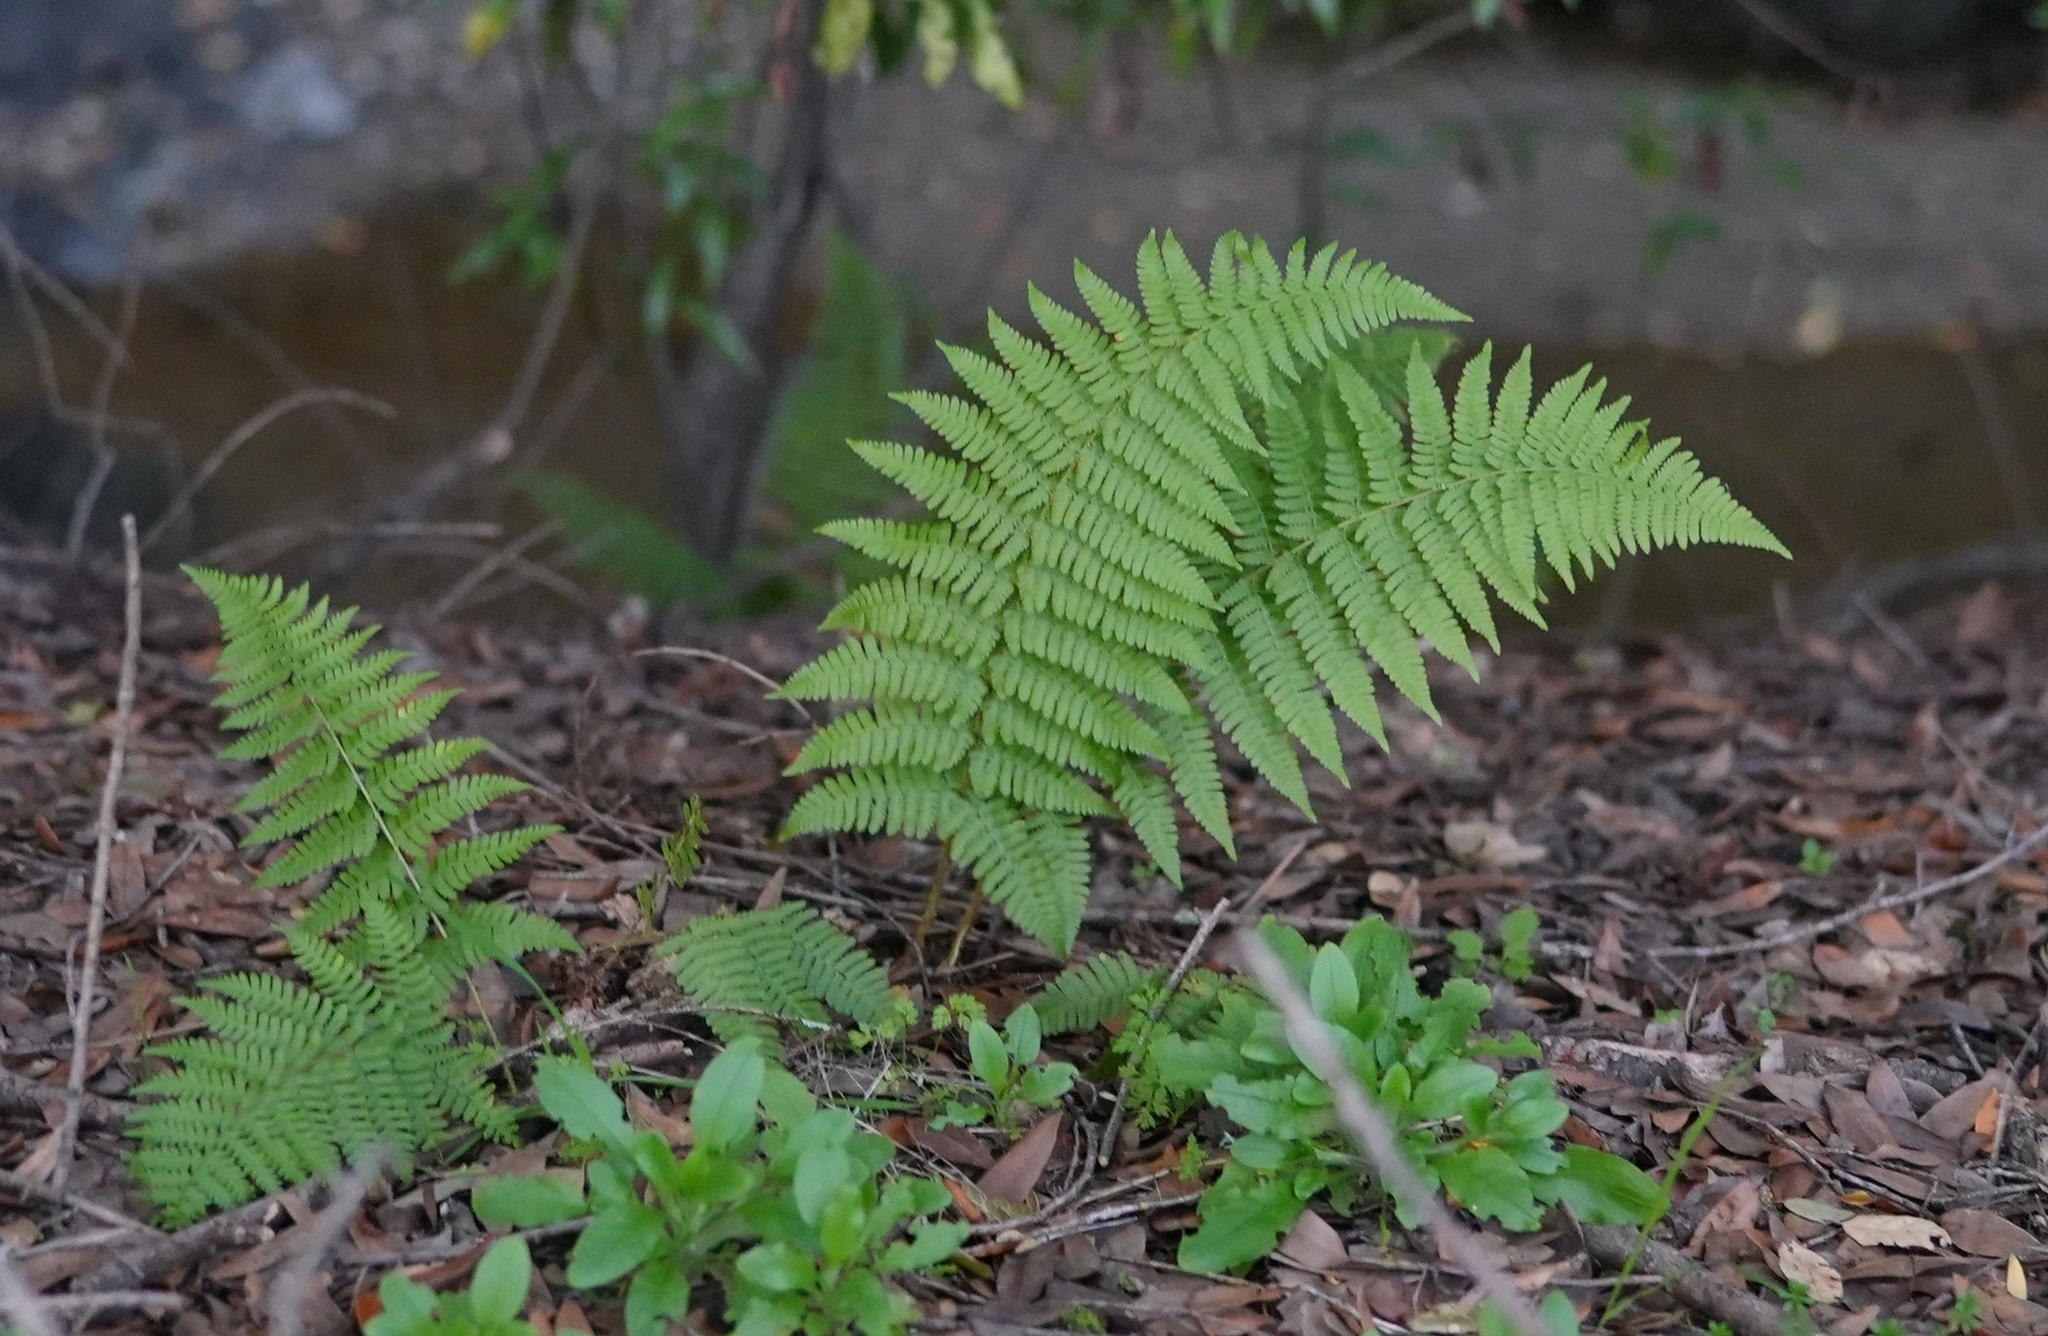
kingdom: Plantae
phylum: Tracheophyta
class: Polypodiopsida
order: Polypodiales
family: Dryopteridaceae
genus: Dryopteris
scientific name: Dryopteris arguta
